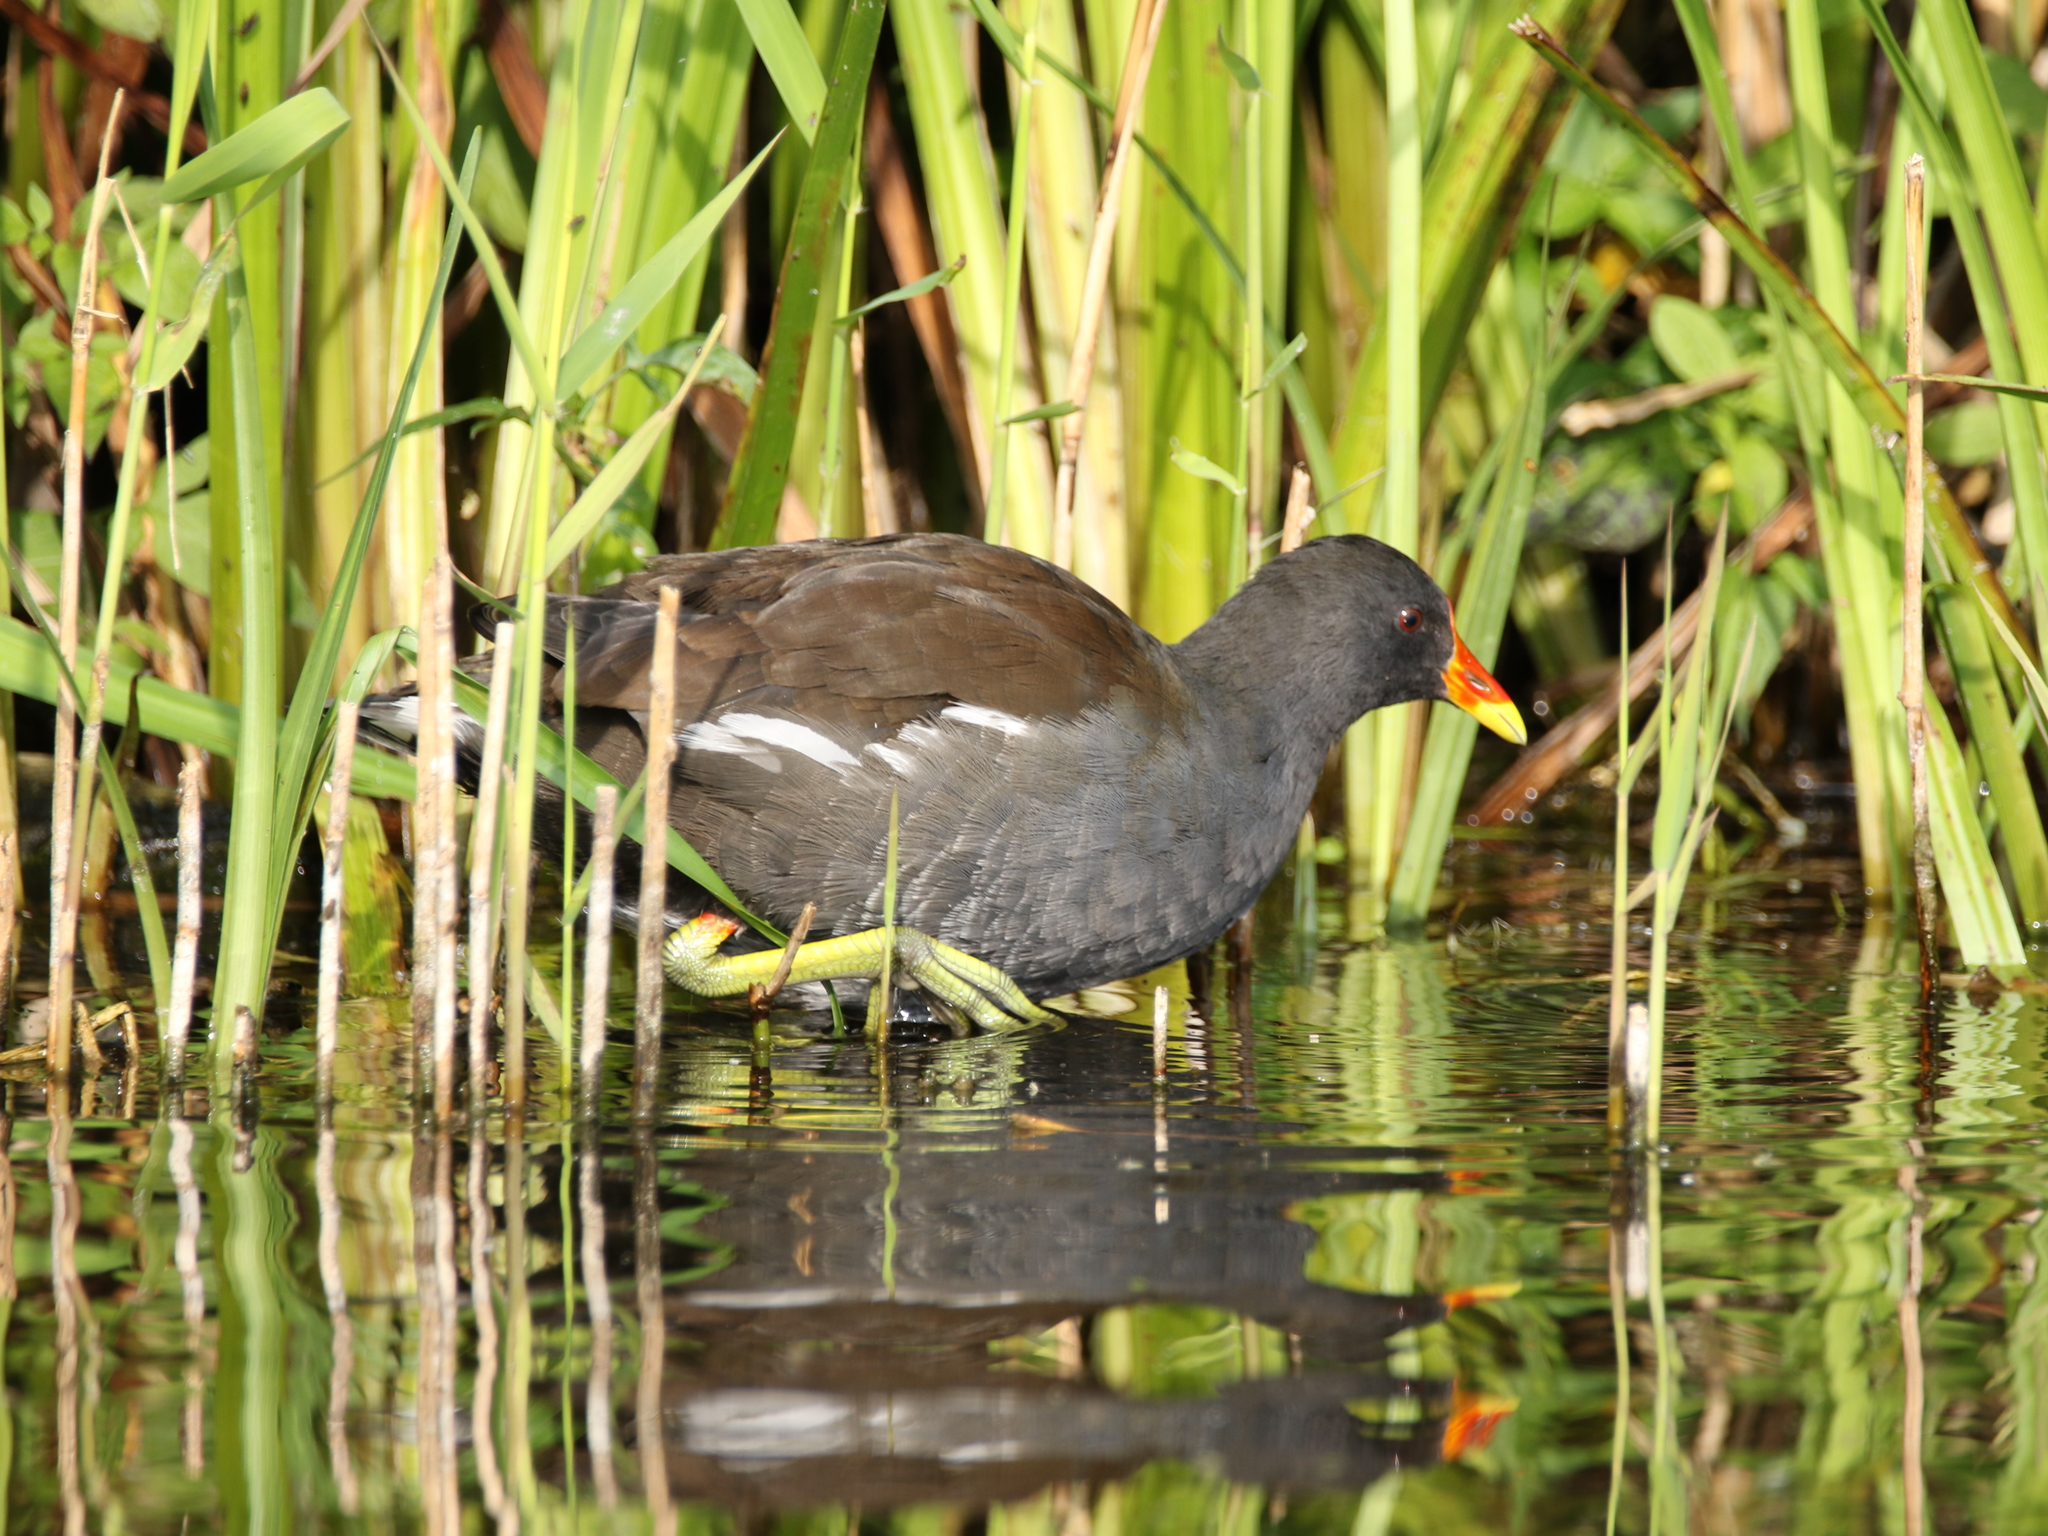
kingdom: Animalia
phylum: Chordata
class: Aves
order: Gruiformes
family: Rallidae
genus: Gallinula
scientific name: Gallinula chloropus
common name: Common moorhen
